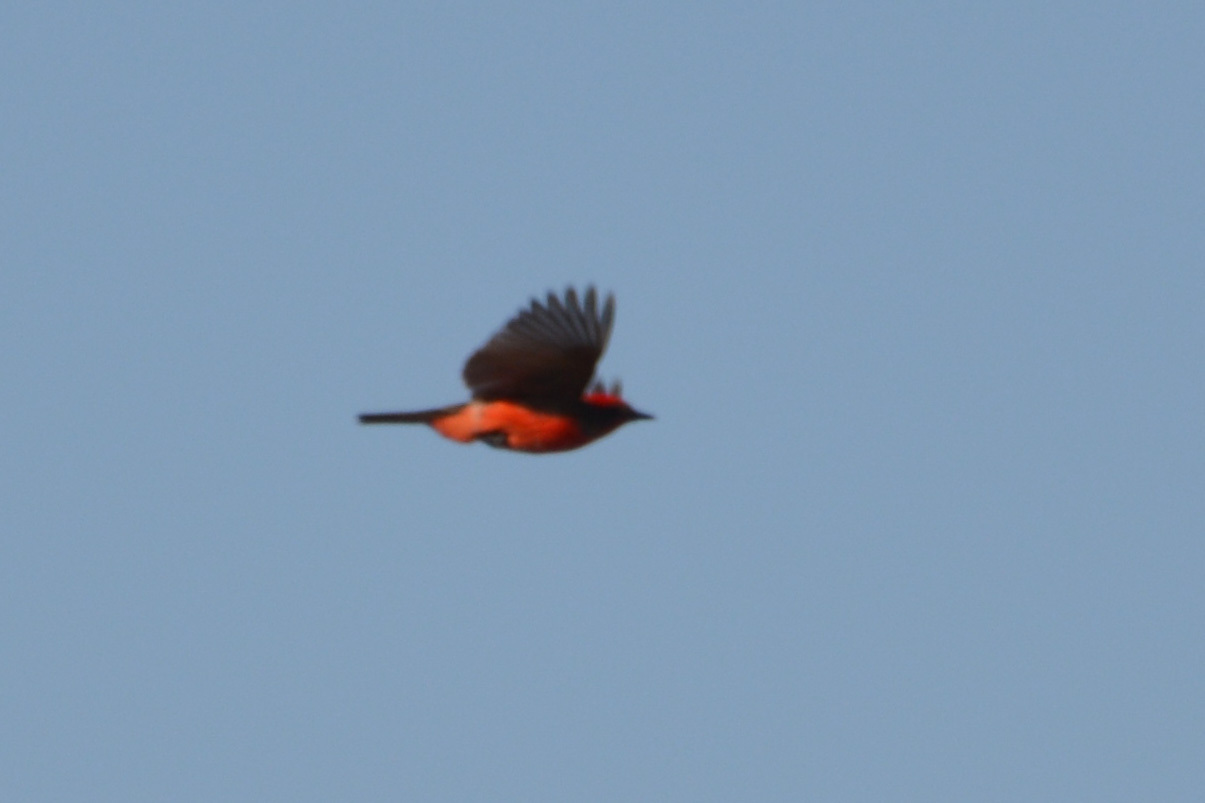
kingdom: Animalia
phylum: Chordata
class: Aves
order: Passeriformes
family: Tyrannidae
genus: Pyrocephalus
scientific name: Pyrocephalus rubinus
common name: Vermilion flycatcher
